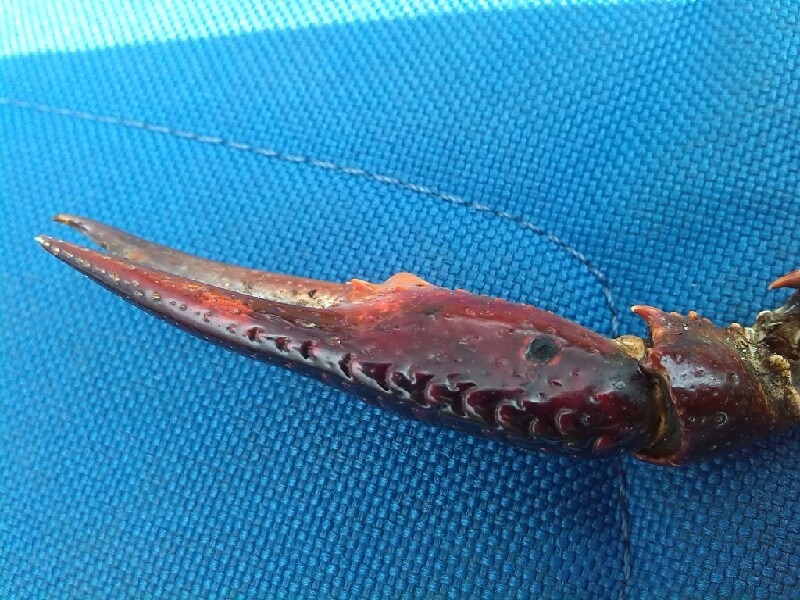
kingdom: Animalia
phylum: Arthropoda
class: Malacostraca
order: Decapoda
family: Cambaridae
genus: Procambarus
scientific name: Procambarus clarkii
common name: Red swamp crayfish
